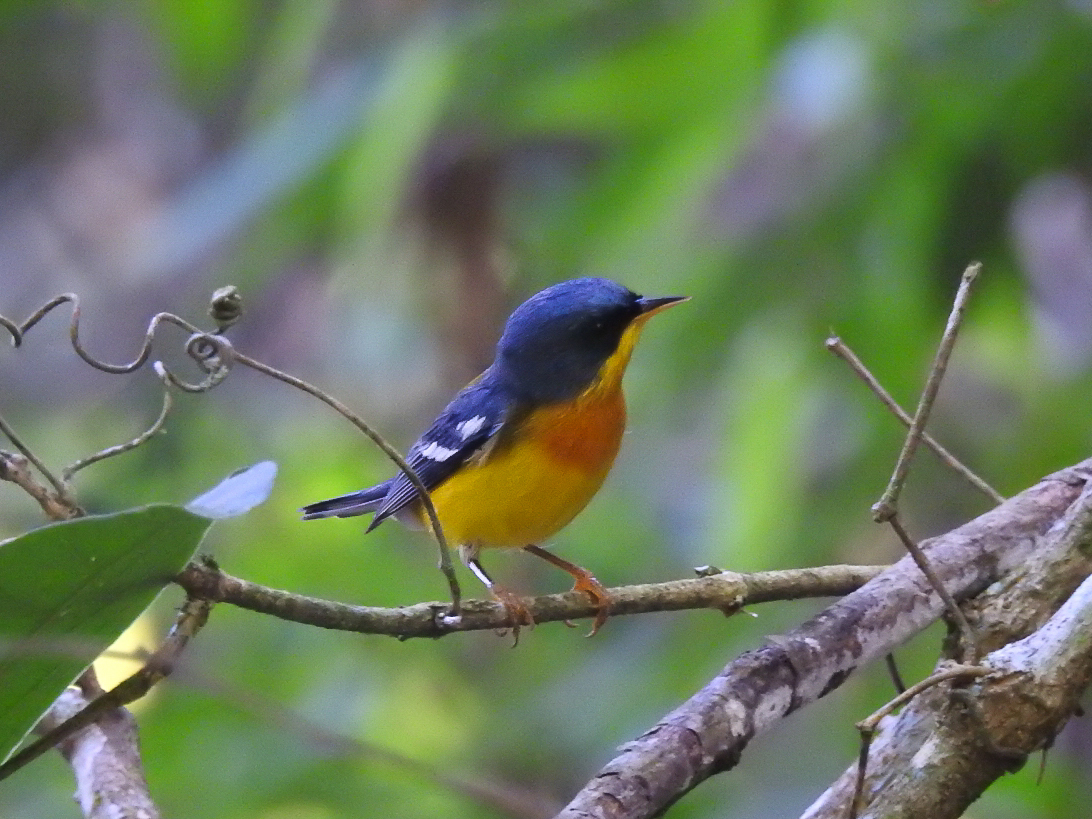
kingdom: Animalia
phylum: Chordata
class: Aves
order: Passeriformes
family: Parulidae
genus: Setophaga
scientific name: Setophaga pitiayumi
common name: Tropical parula
